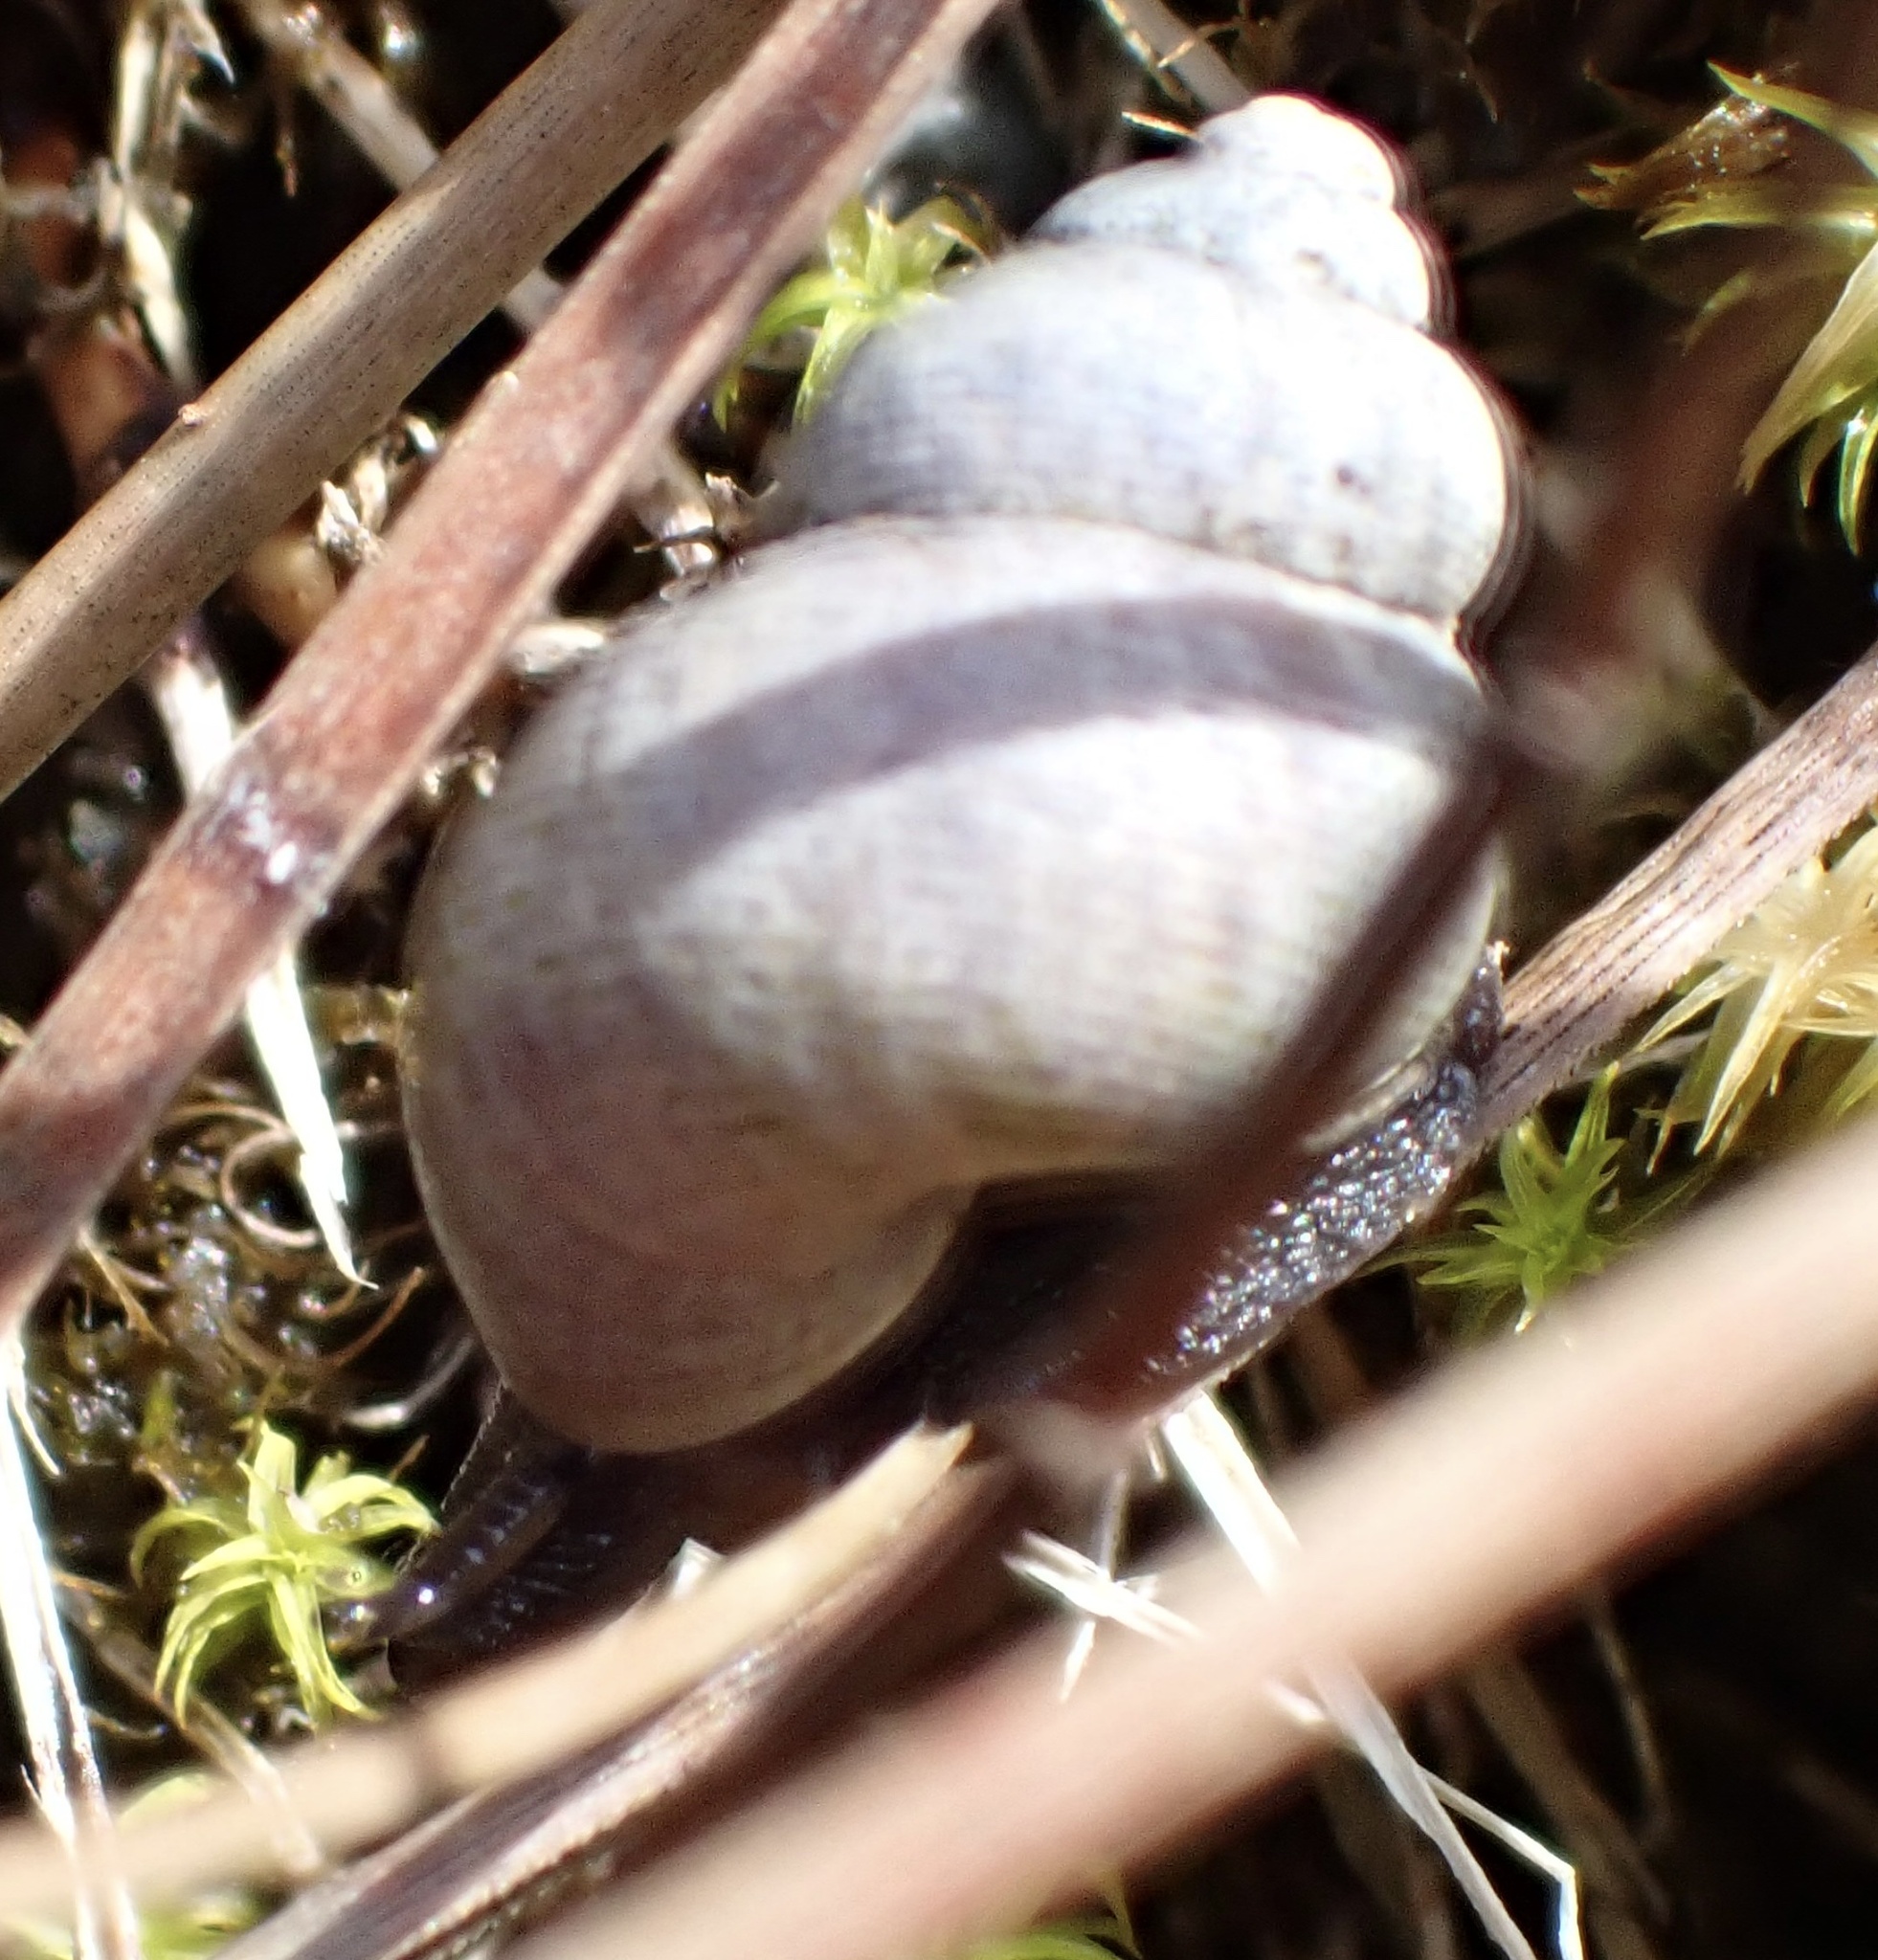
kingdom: Animalia
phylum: Mollusca
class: Gastropoda
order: Littorinimorpha
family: Pomatiidae
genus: Pomatias
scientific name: Pomatias elegans
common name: Red-mouthed snail
